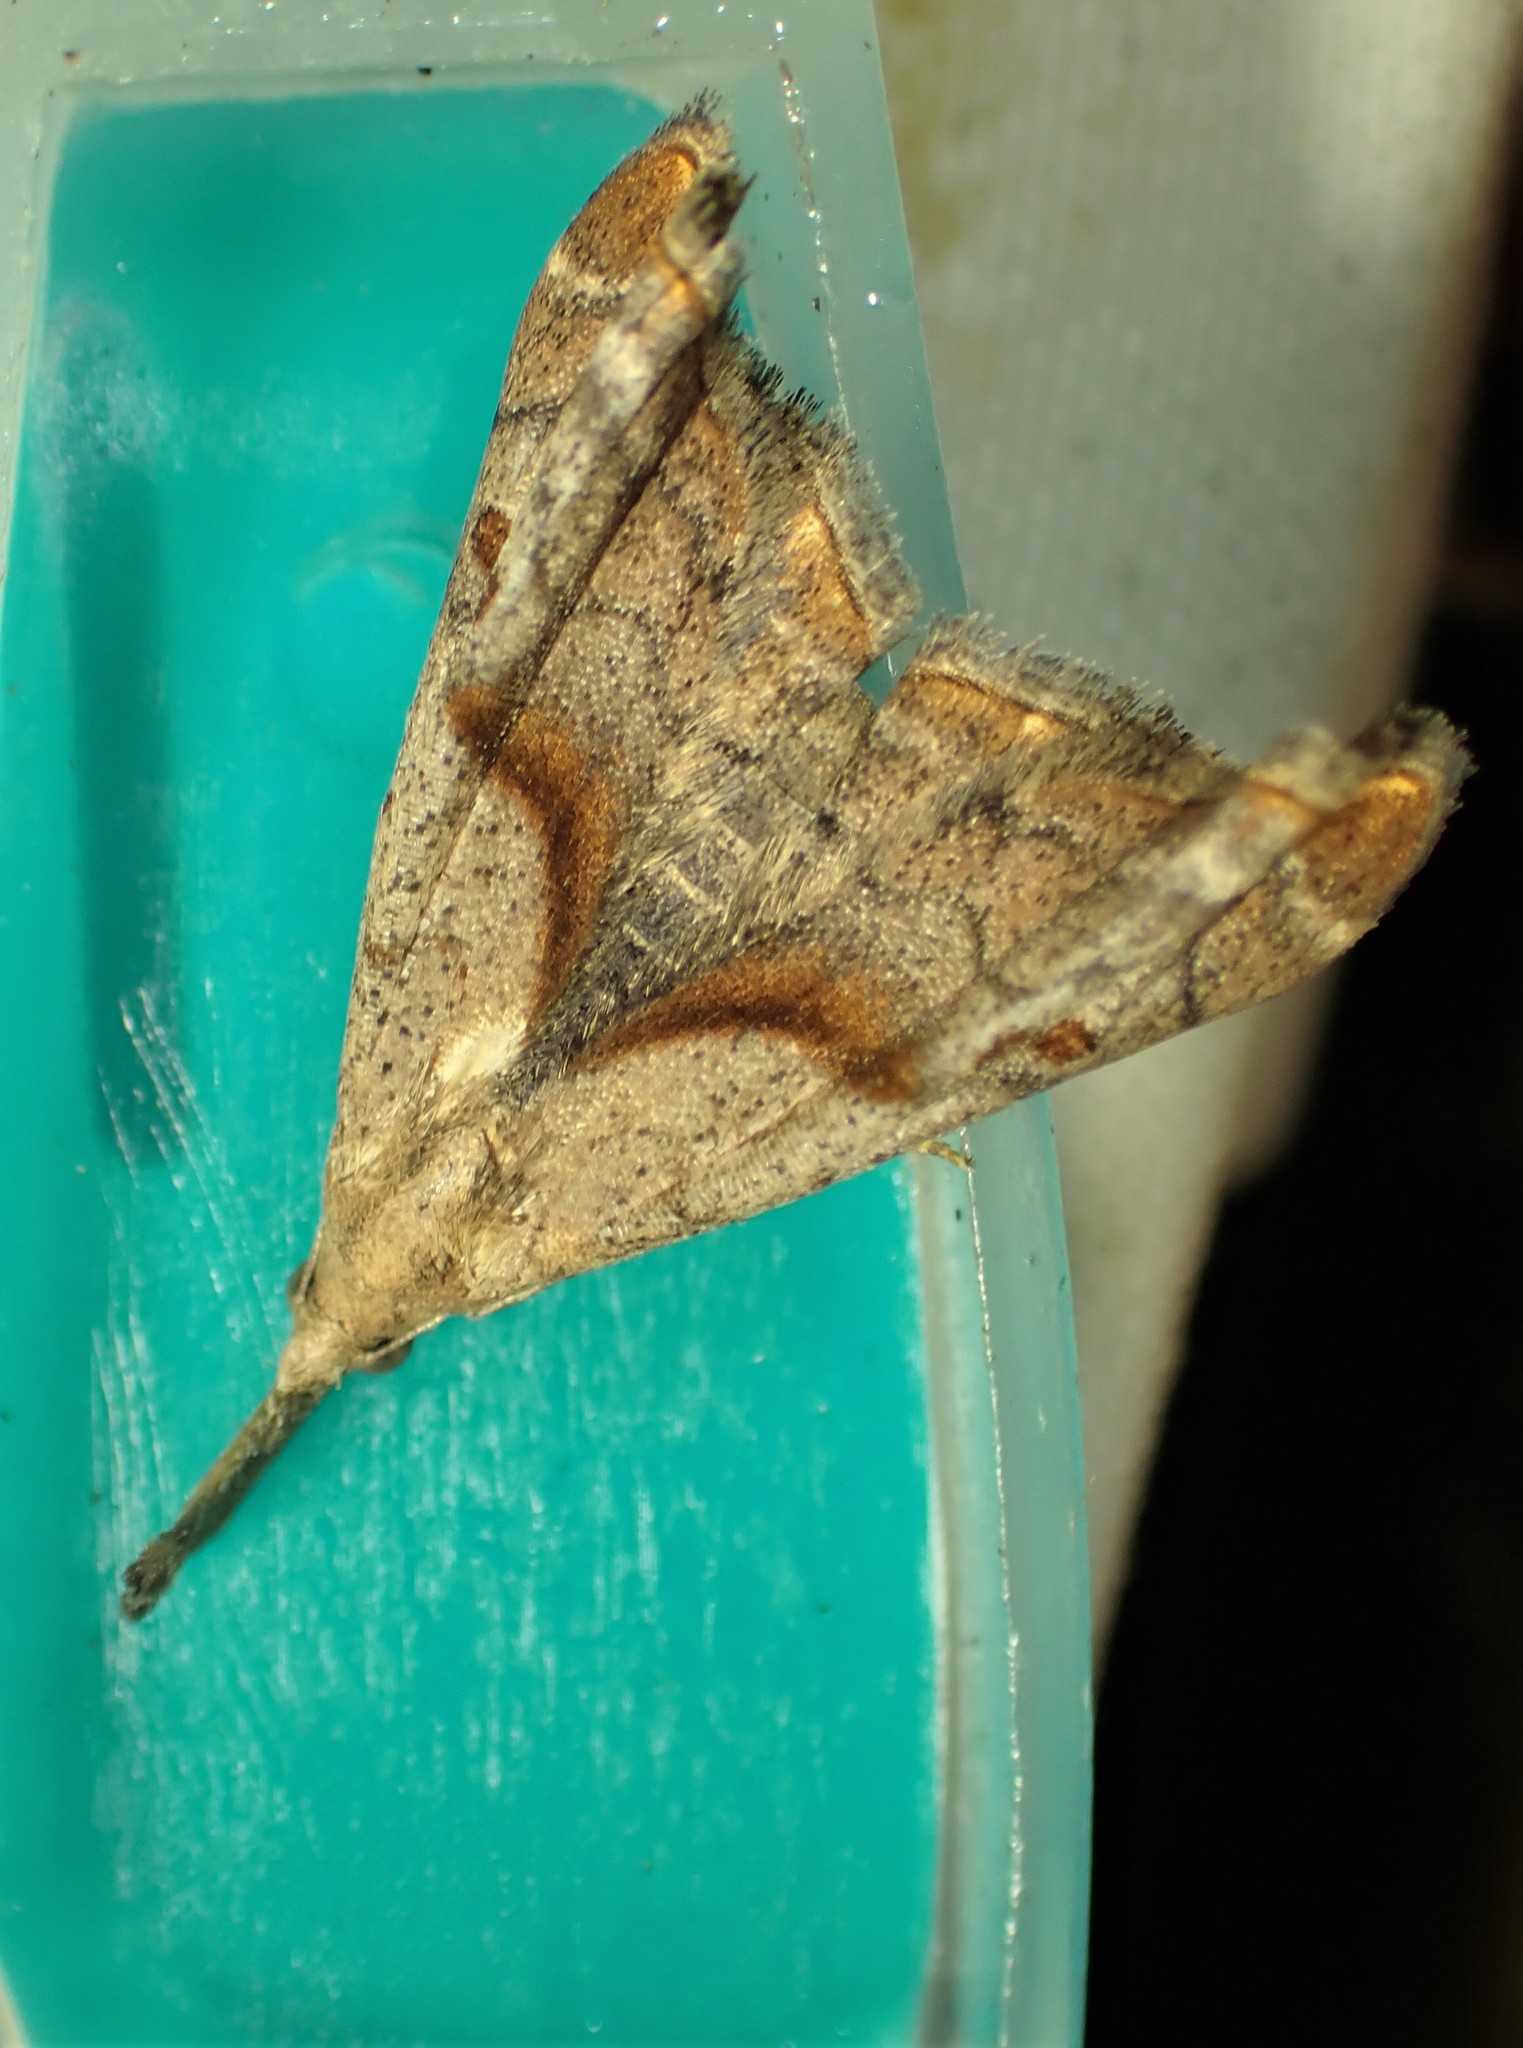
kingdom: Animalia
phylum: Arthropoda
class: Insecta
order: Lepidoptera
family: Erebidae
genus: Palthis
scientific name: Palthis angulalis
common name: Dark-spotted palthis moth
